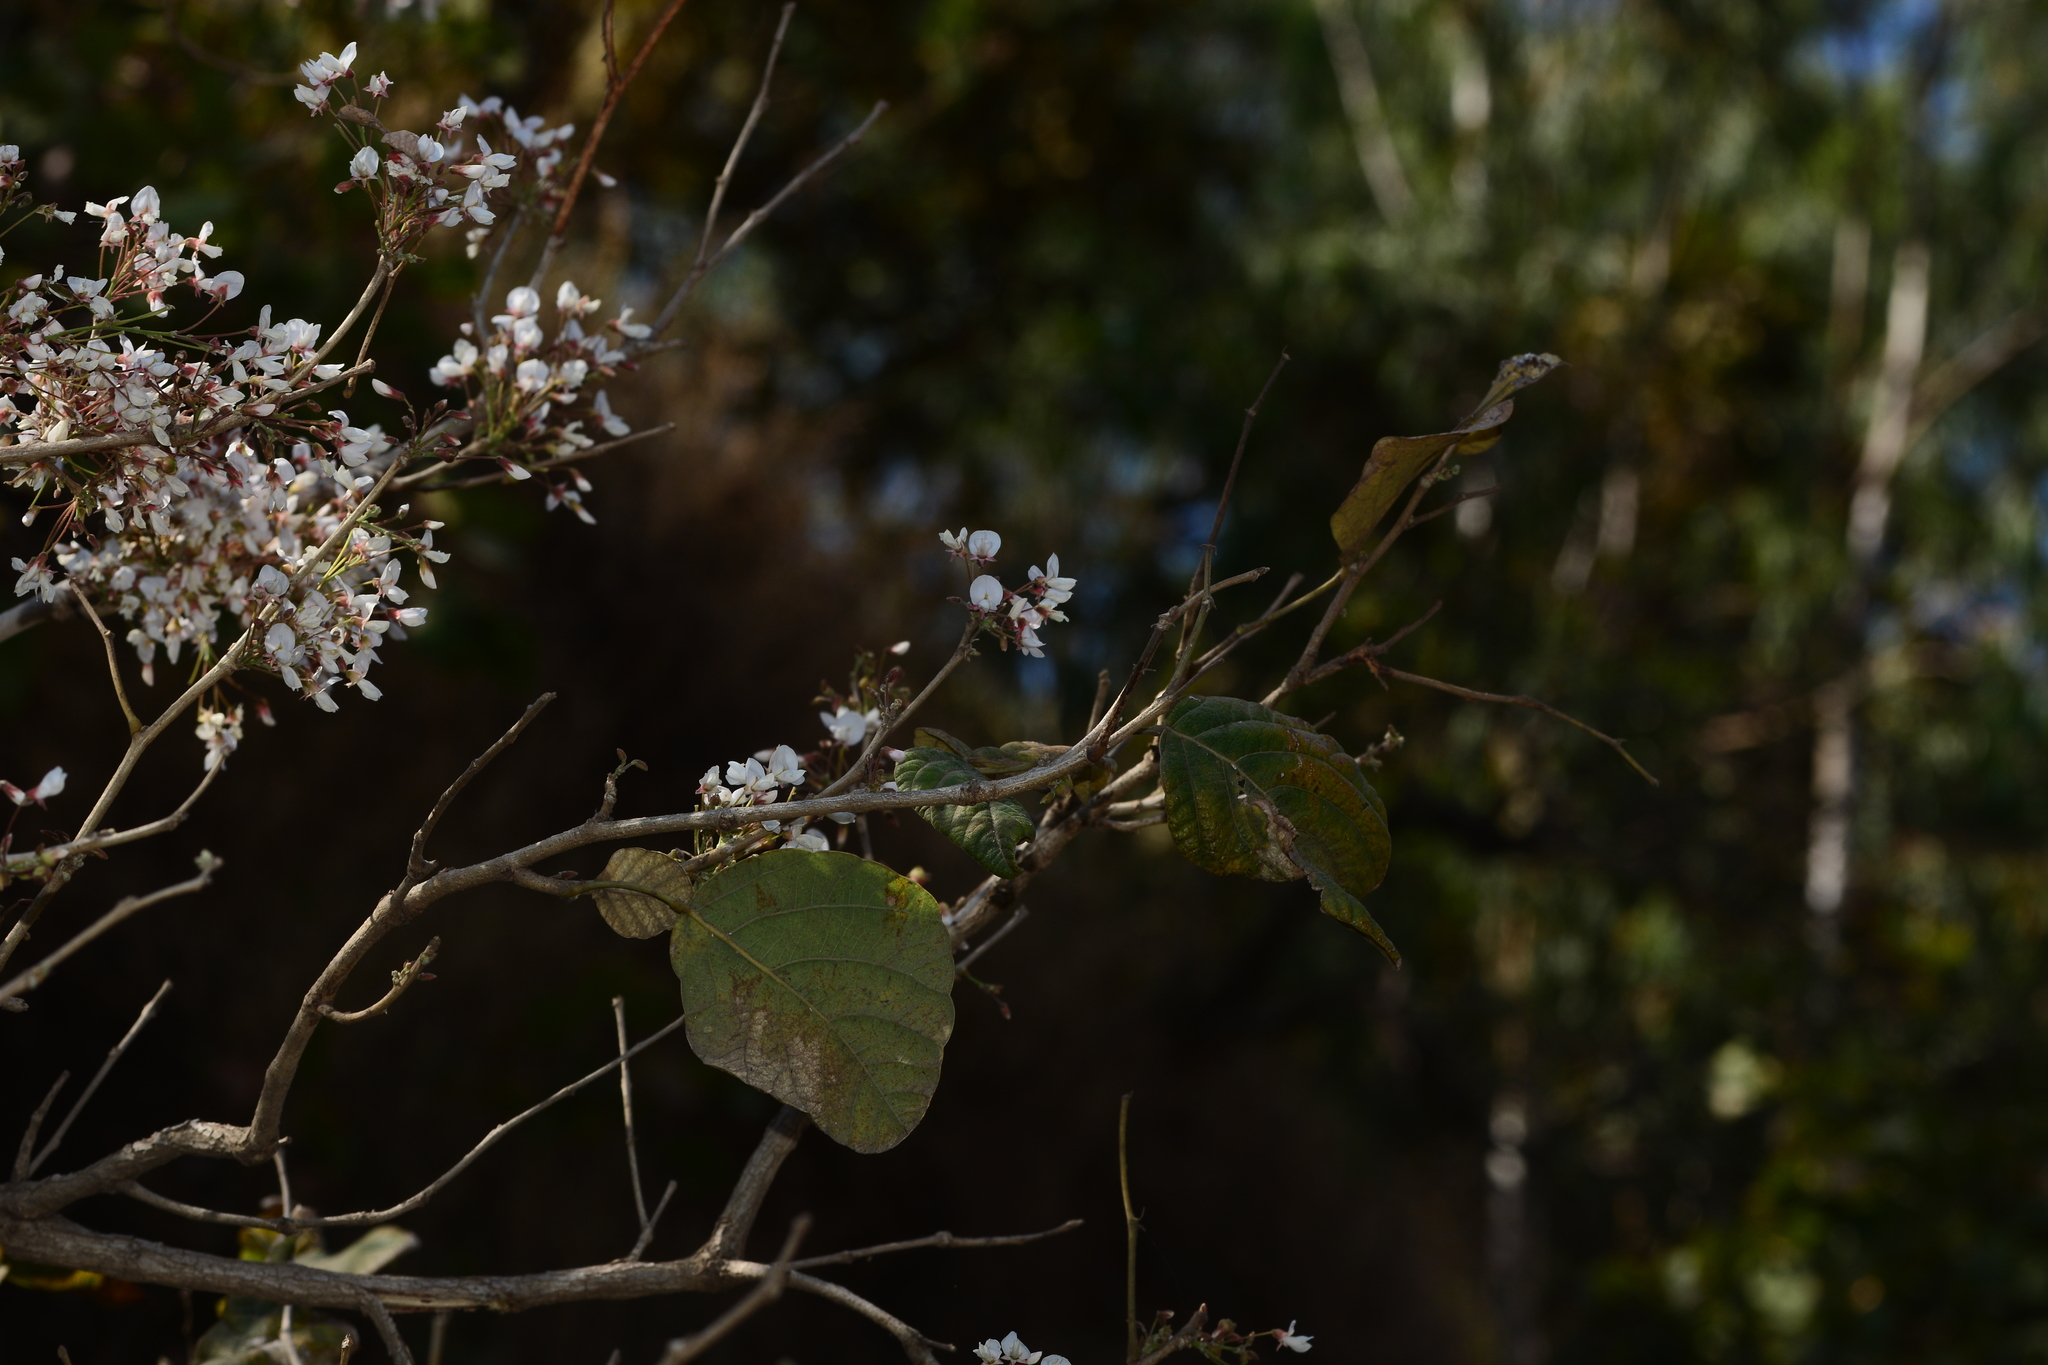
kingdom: Plantae
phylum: Tracheophyta
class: Magnoliopsida
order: Fabales
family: Fabaceae
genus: Ougeinia
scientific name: Ougeinia oojeinensis
